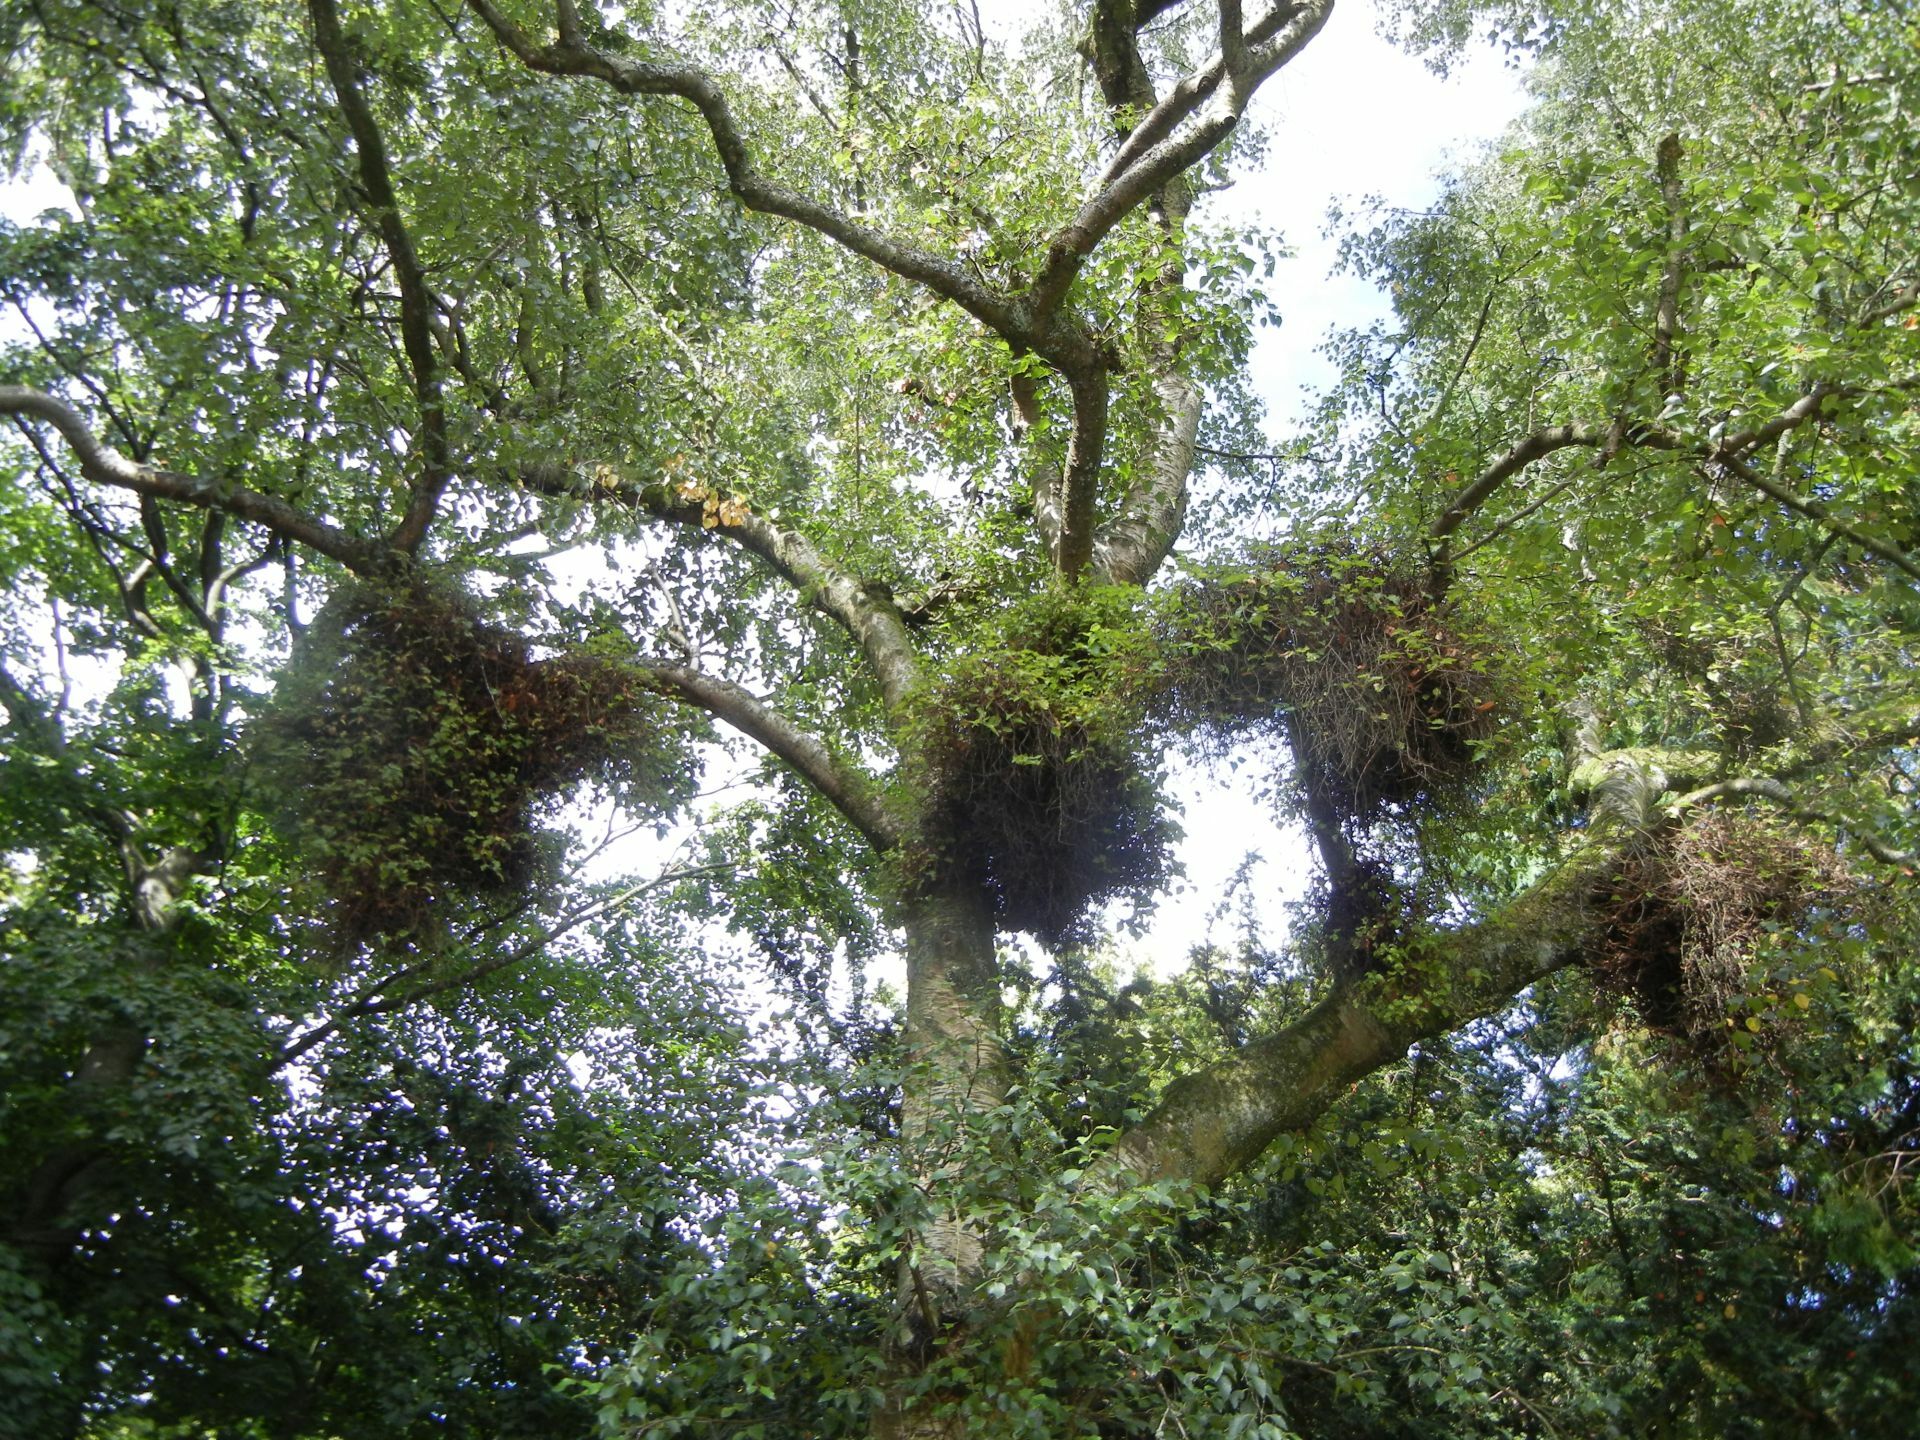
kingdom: Fungi
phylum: Ascomycota
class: Taphrinomycetes
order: Taphrinales
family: Taphrinaceae
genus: Taphrina
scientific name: Taphrina betulina
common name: Birch besom
